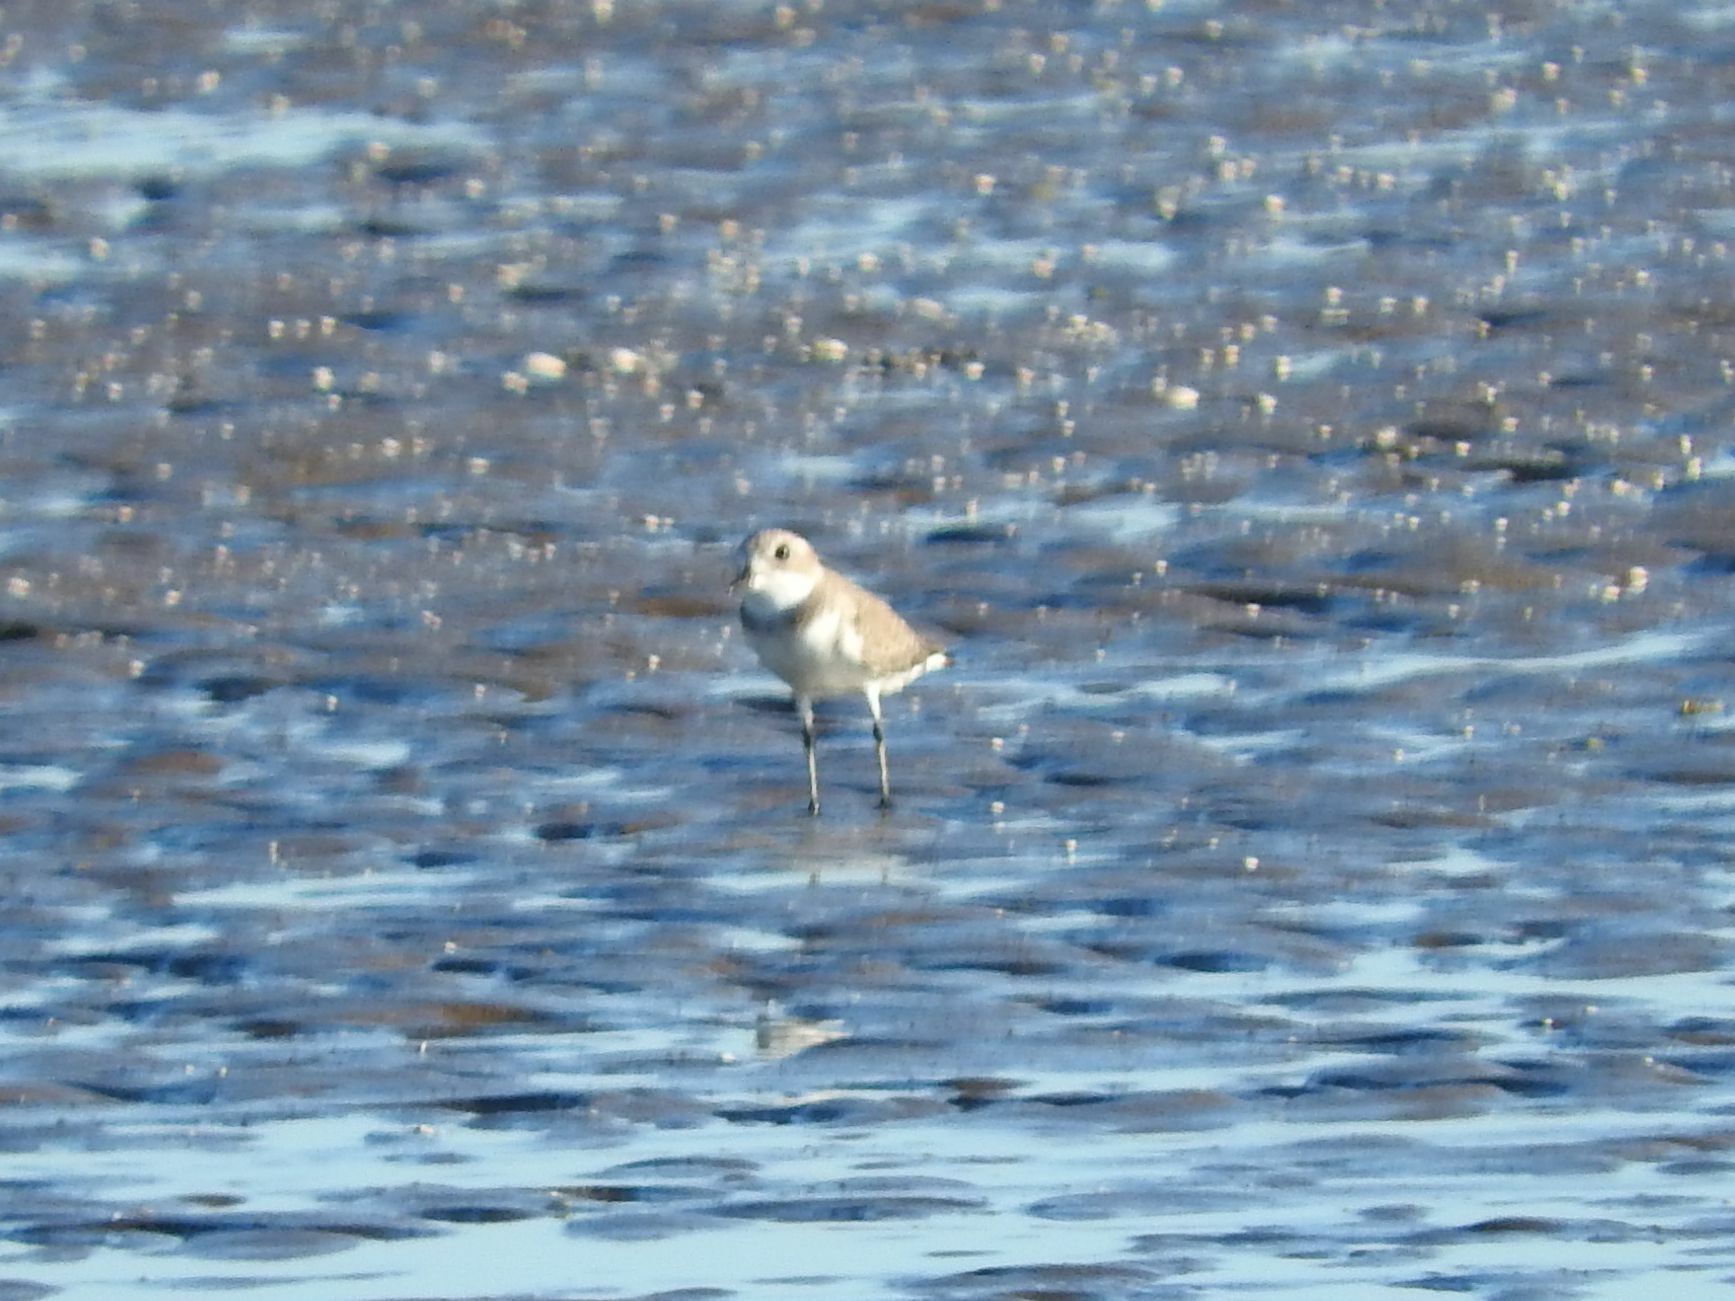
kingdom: Animalia
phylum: Chordata
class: Aves
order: Charadriiformes
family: Charadriidae
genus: Anarhynchus
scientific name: Anarhynchus
